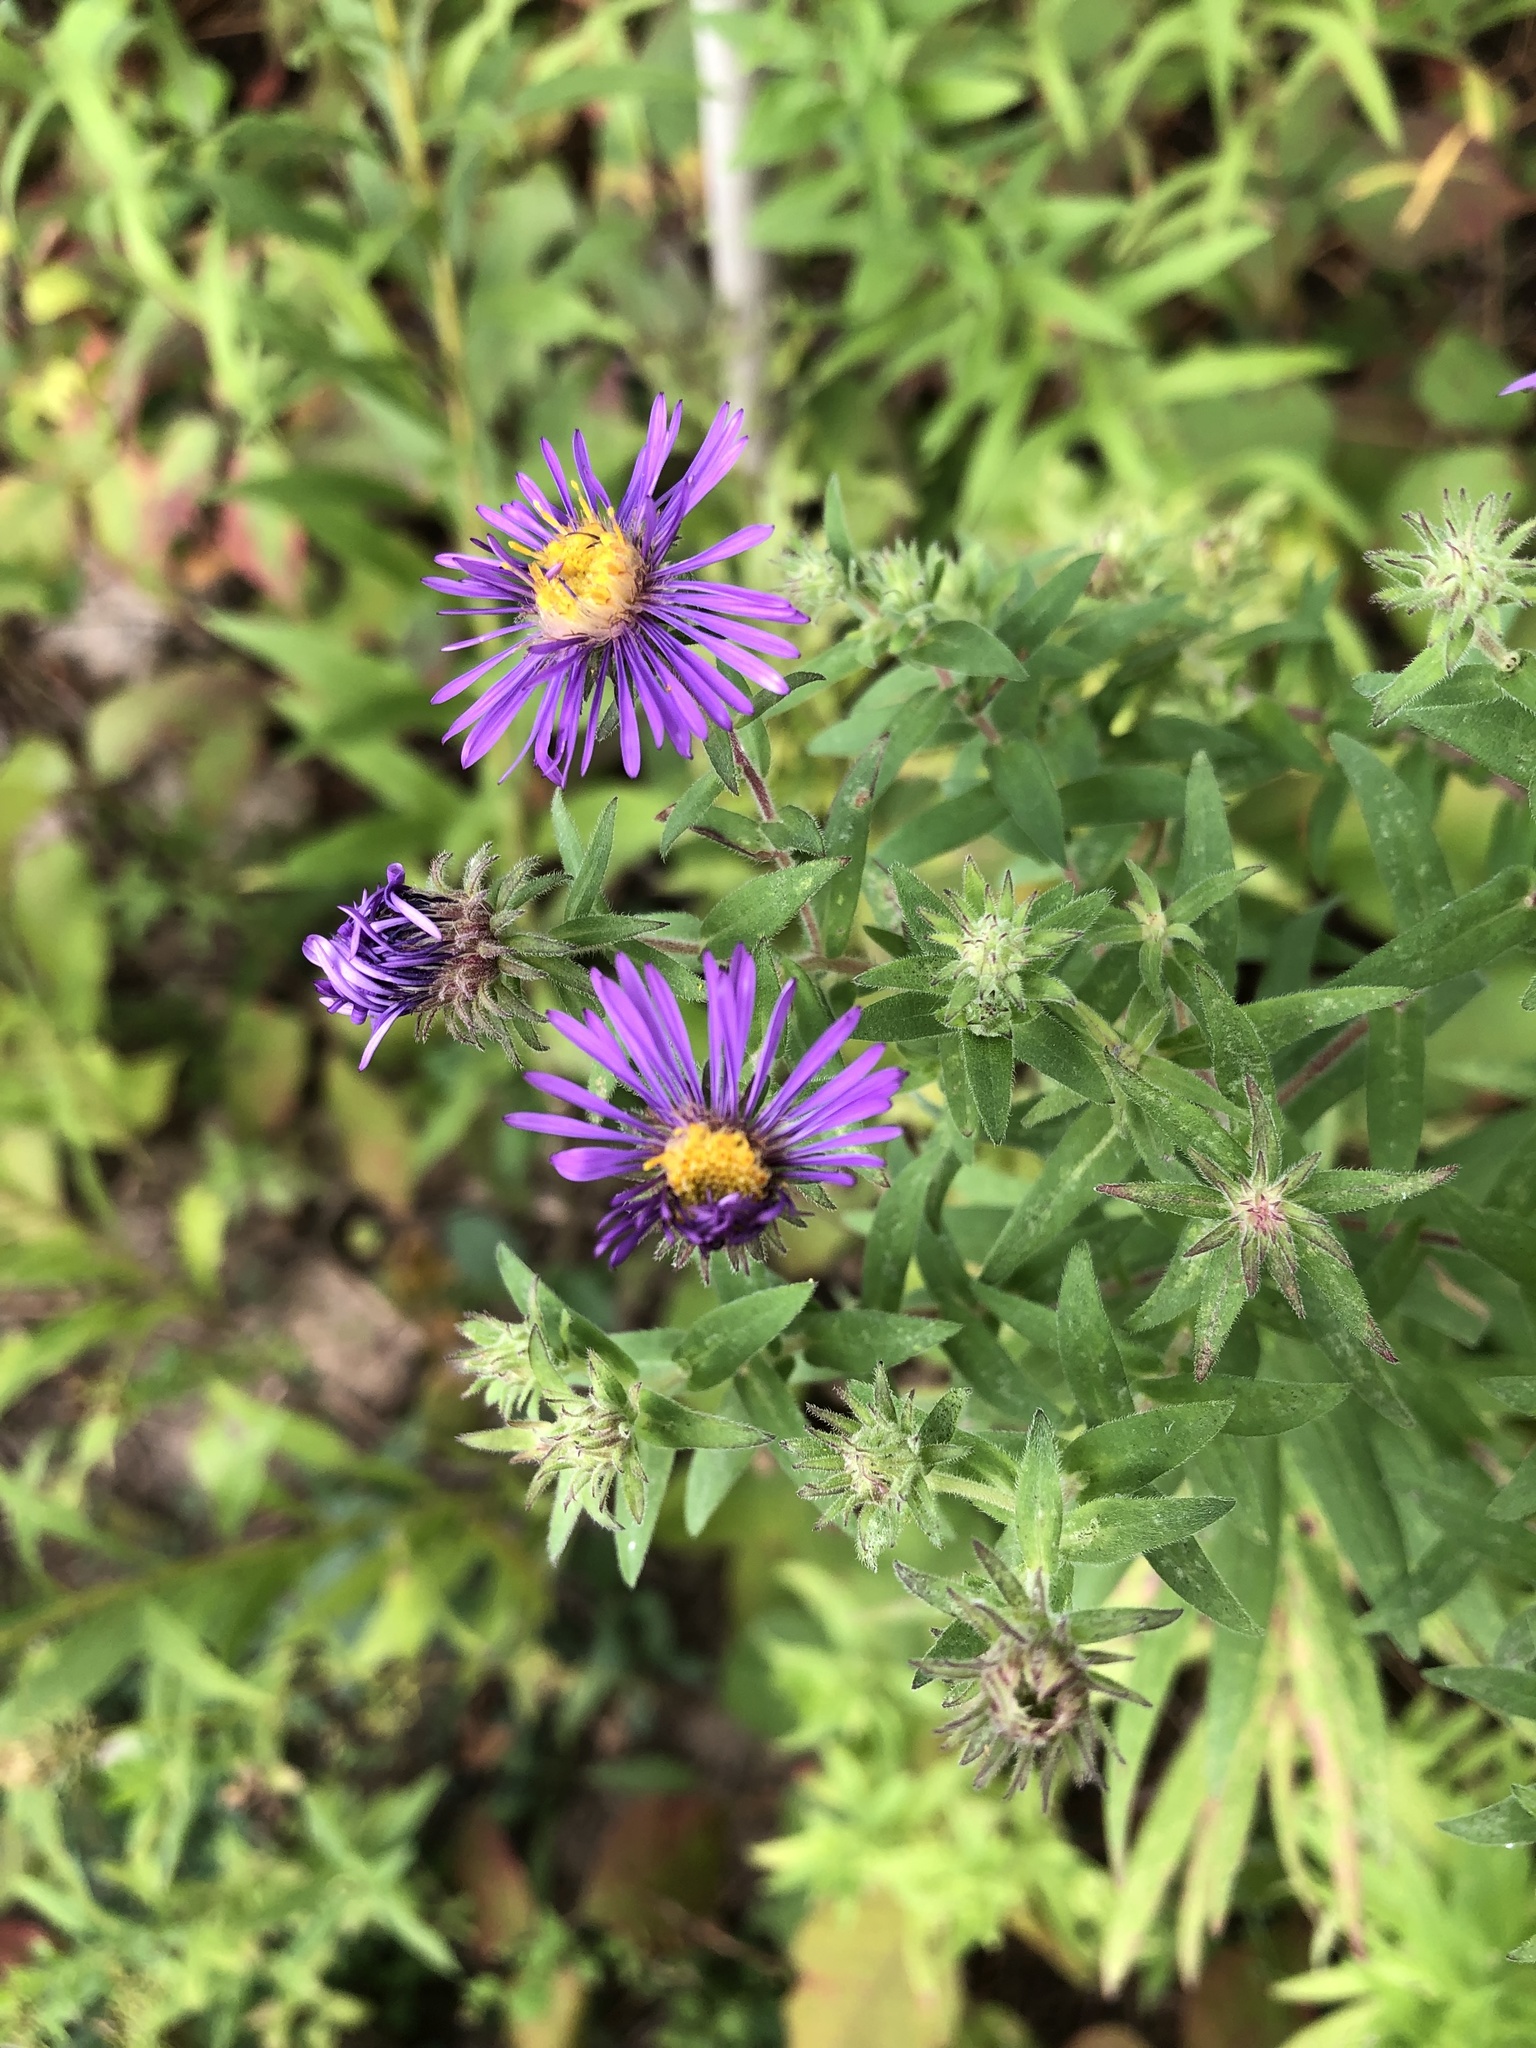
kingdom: Plantae
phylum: Tracheophyta
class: Magnoliopsida
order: Asterales
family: Asteraceae
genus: Symphyotrichum
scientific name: Symphyotrichum novae-angliae
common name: Michaelmas daisy
